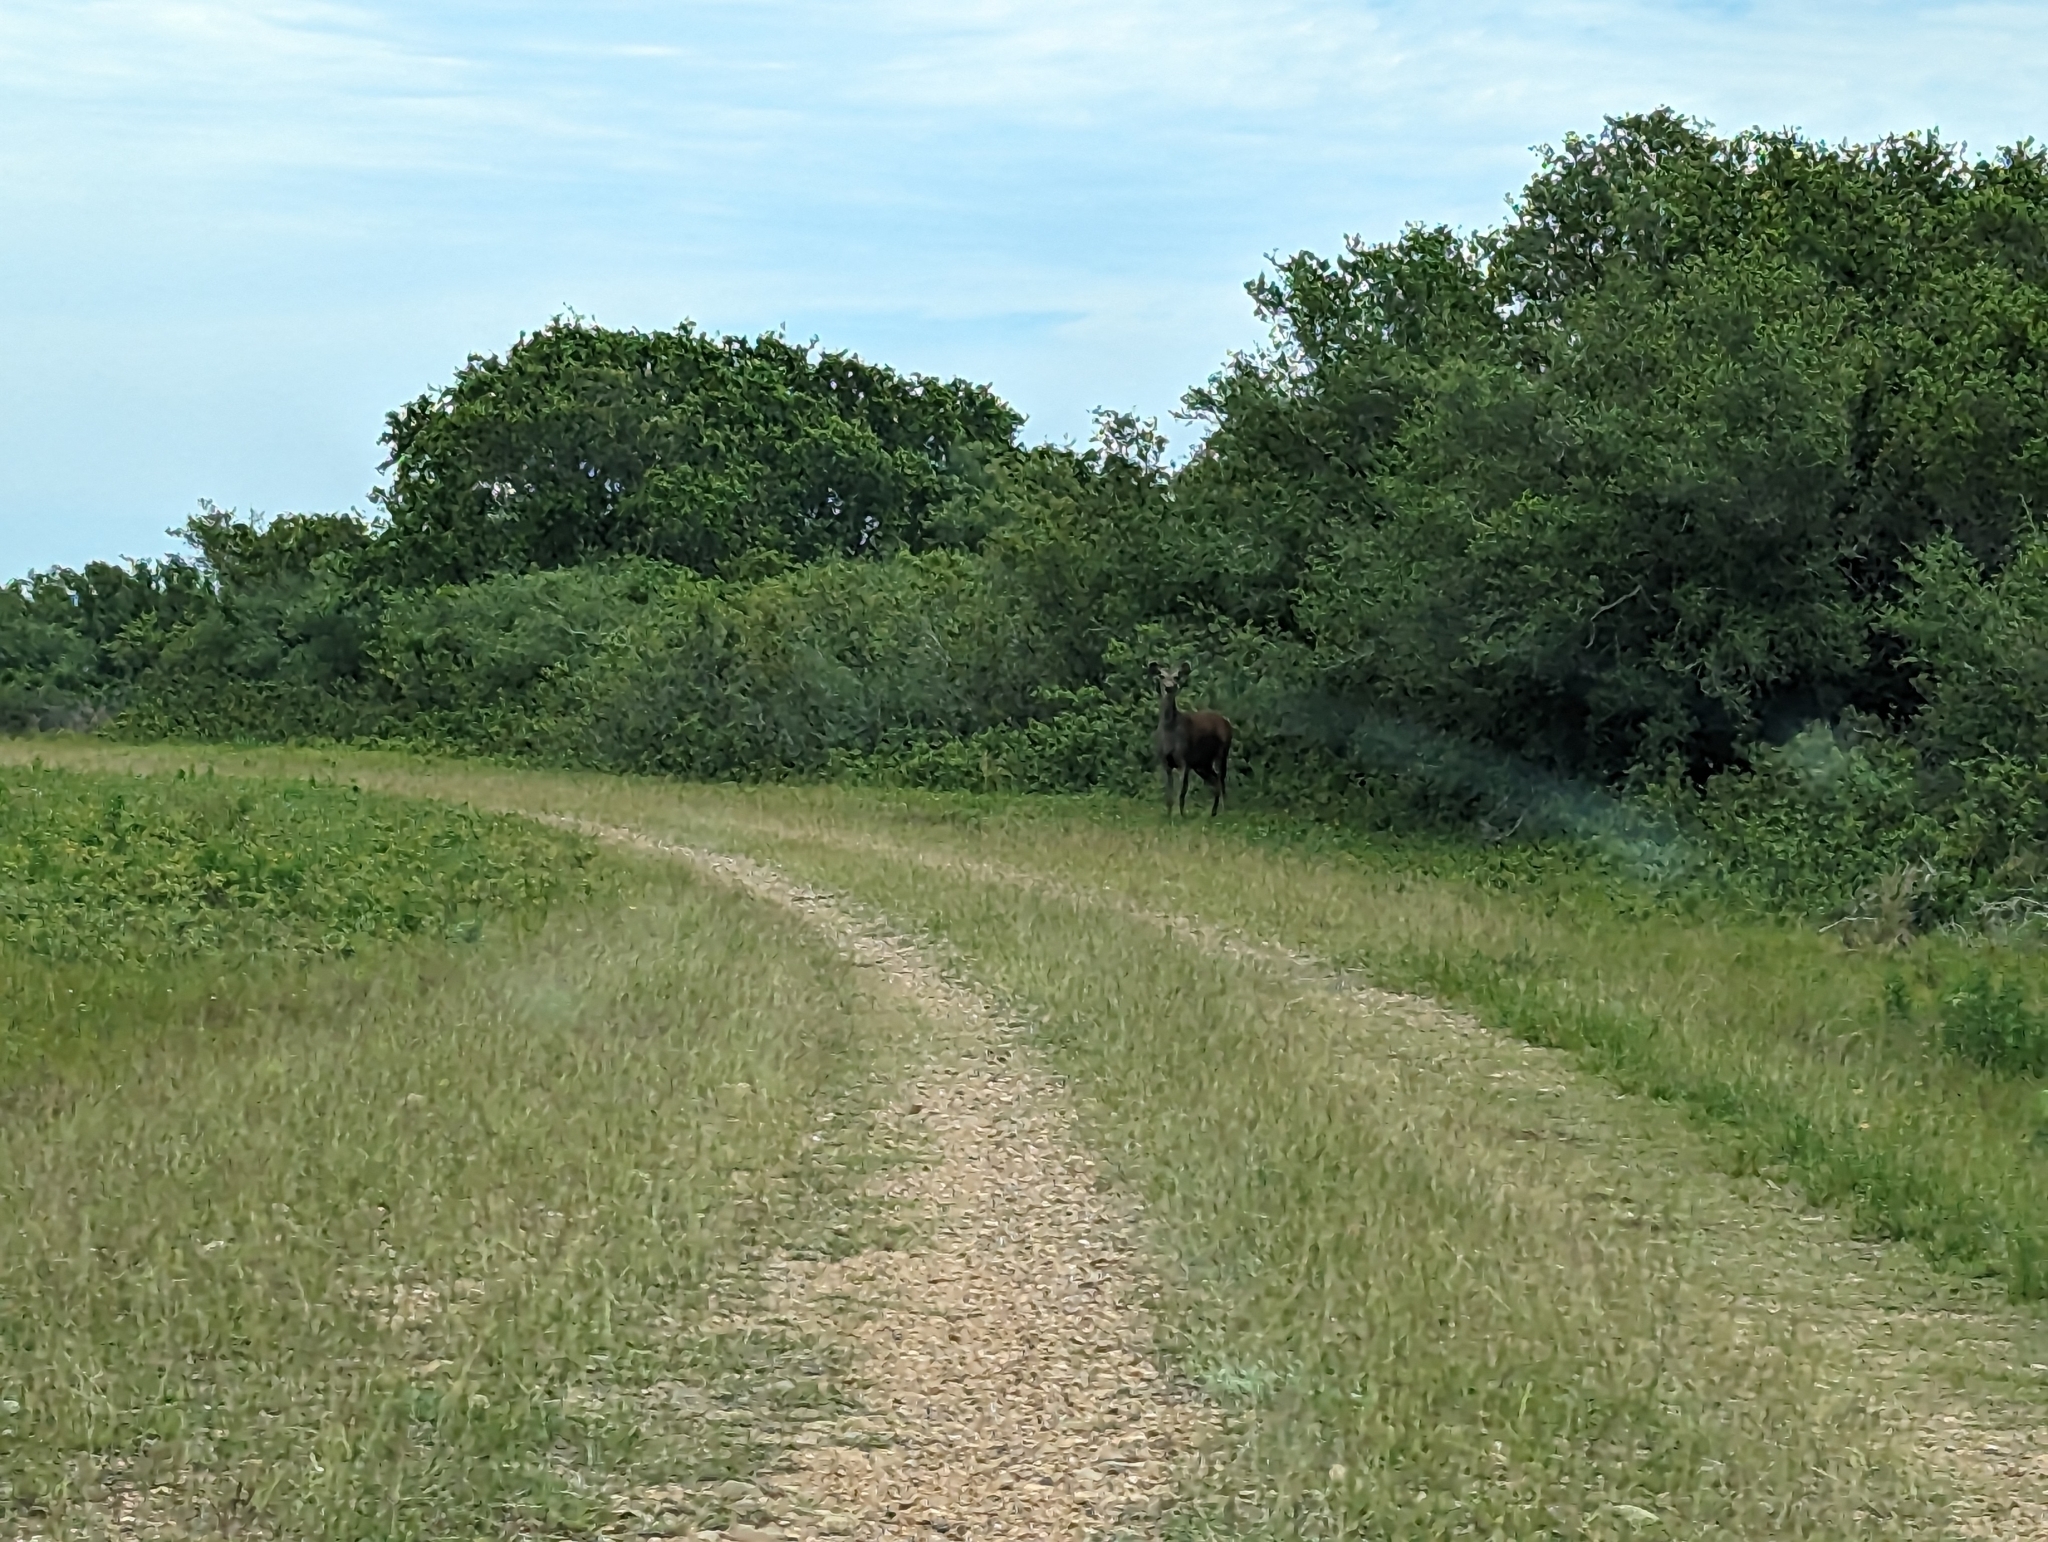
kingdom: Animalia
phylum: Chordata
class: Mammalia
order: Artiodactyla
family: Cervidae
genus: Rusa
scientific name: Rusa unicolor
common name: Sambar
